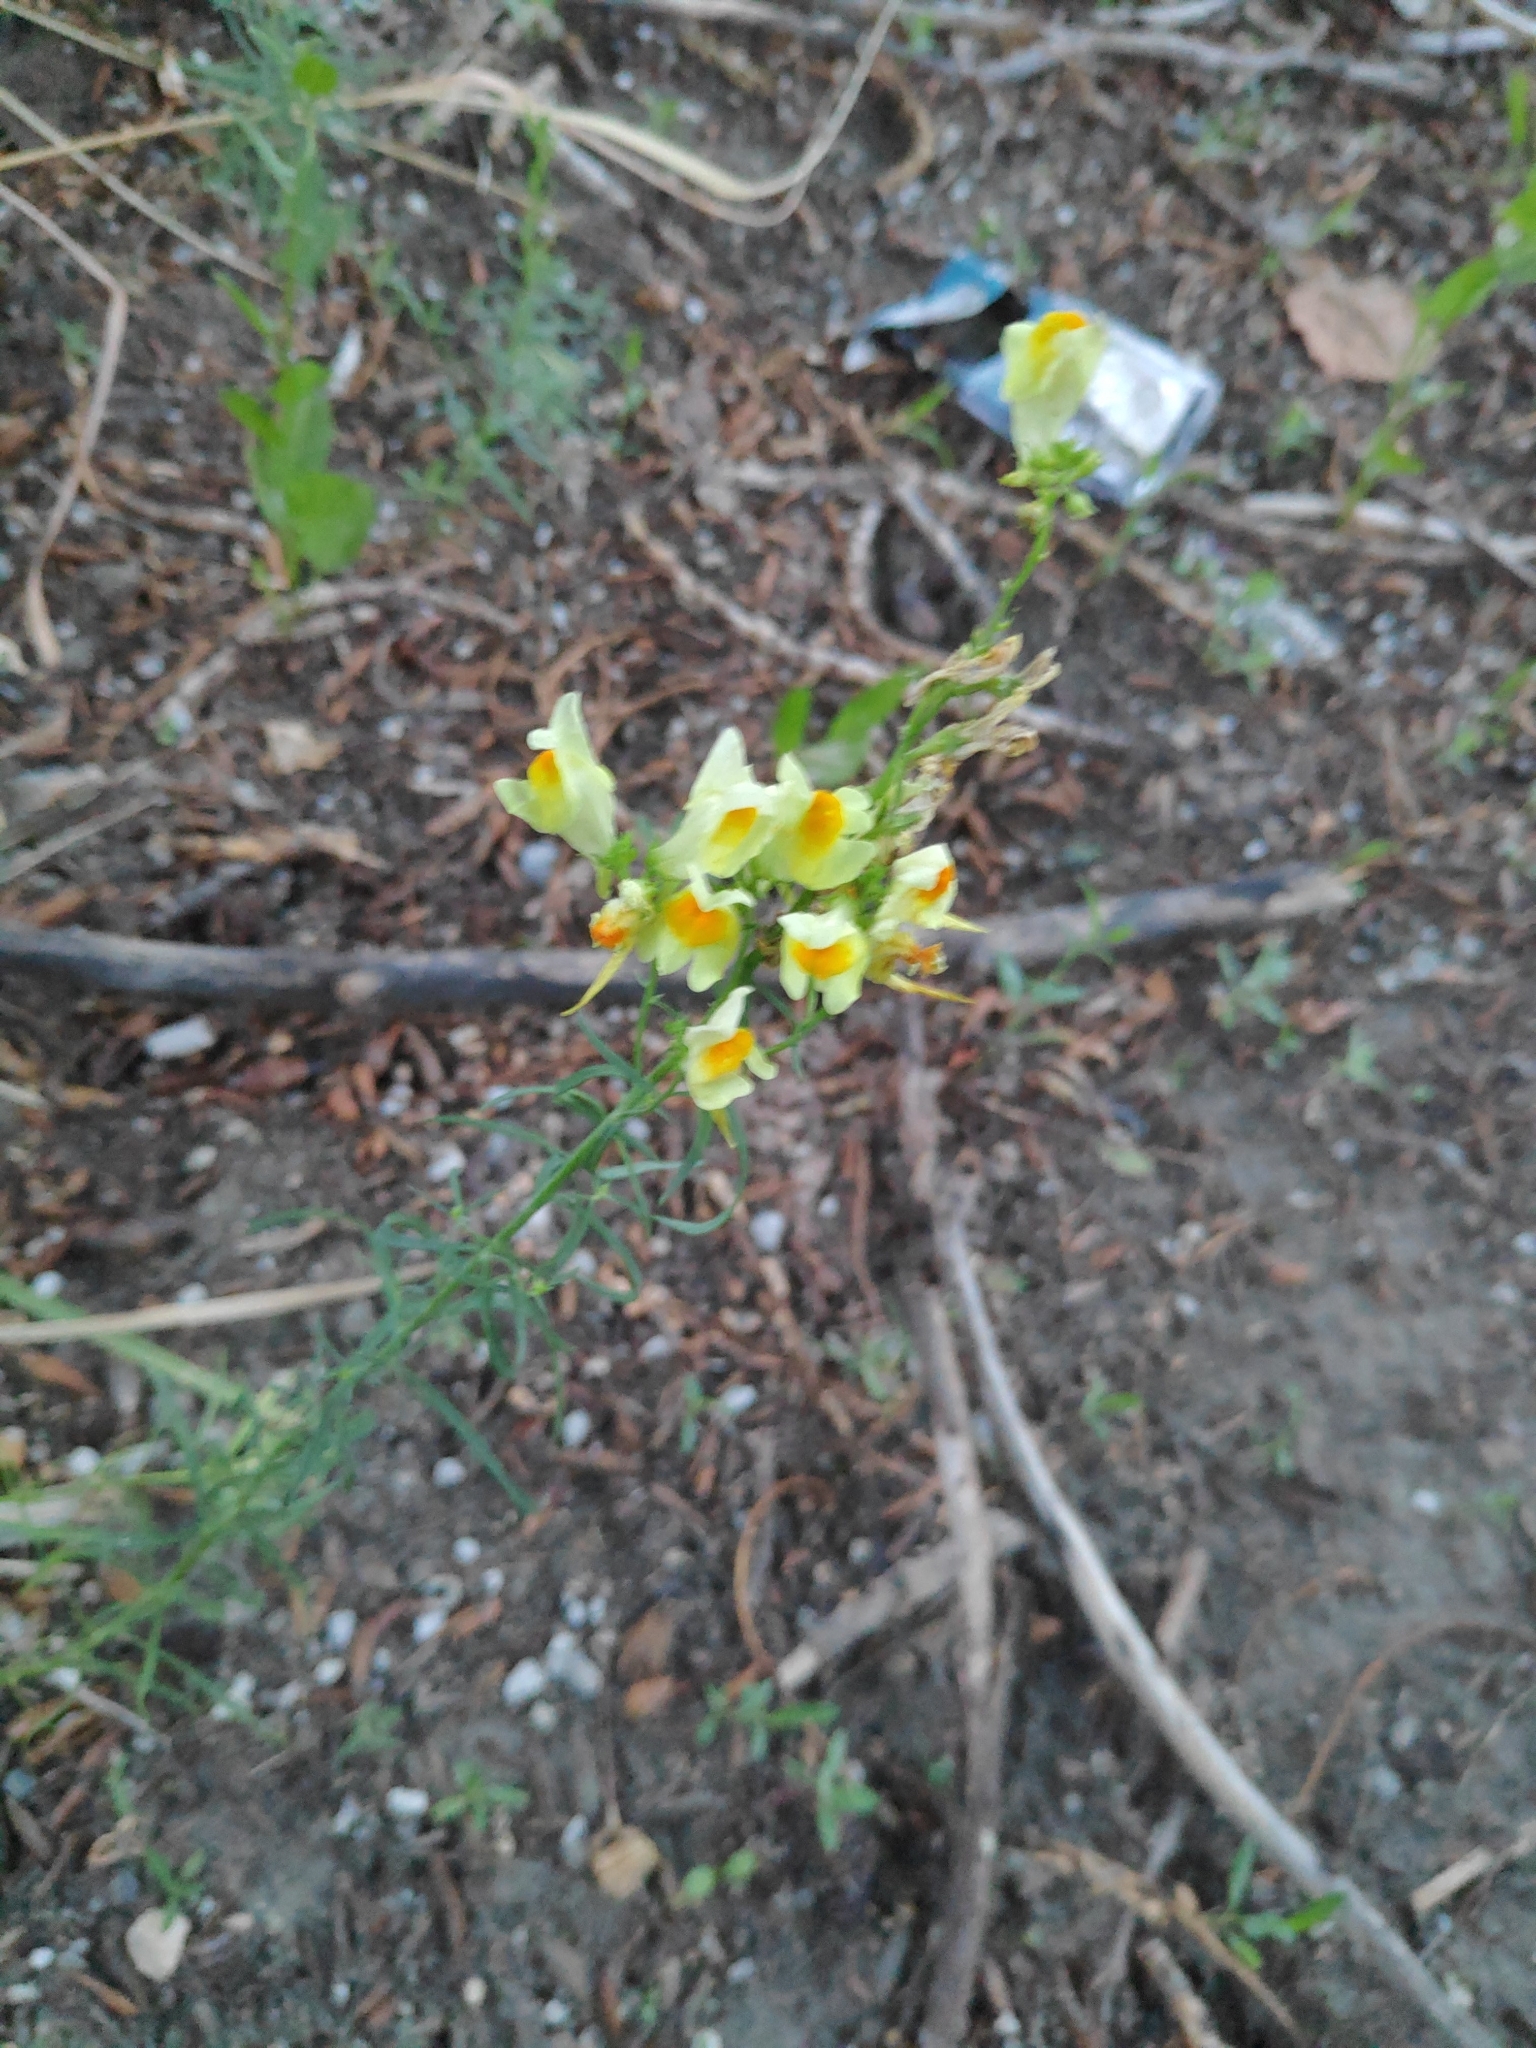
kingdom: Plantae
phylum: Tracheophyta
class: Magnoliopsida
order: Lamiales
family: Plantaginaceae
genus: Linaria
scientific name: Linaria vulgaris
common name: Butter and eggs
